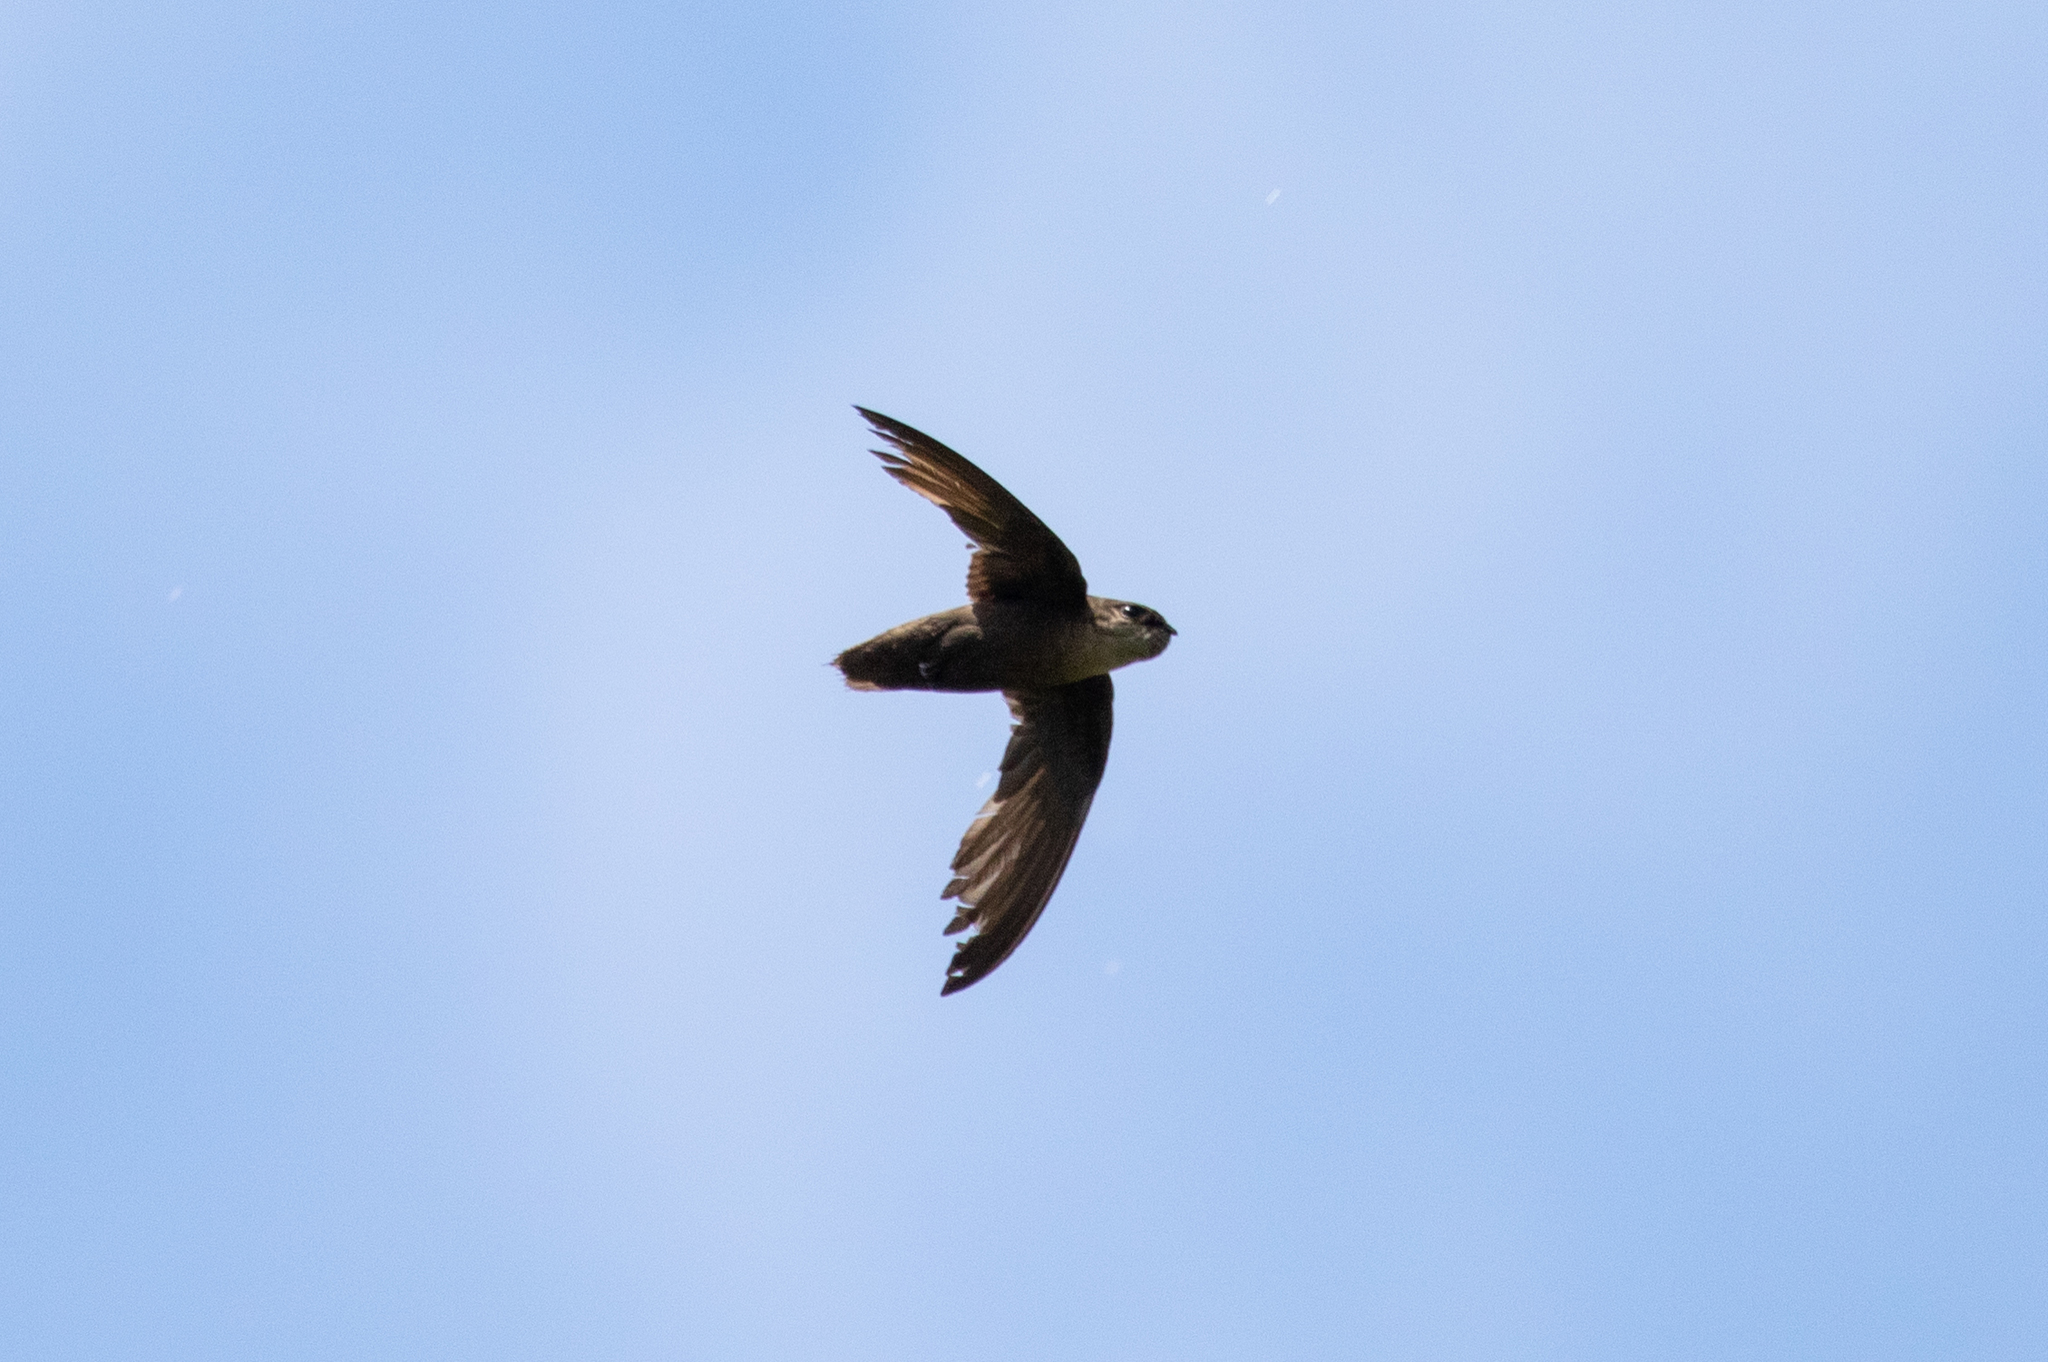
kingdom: Animalia
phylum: Chordata
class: Aves
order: Apodiformes
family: Apodidae
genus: Chaetura
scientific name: Chaetura pelagica
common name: Chimney swift
